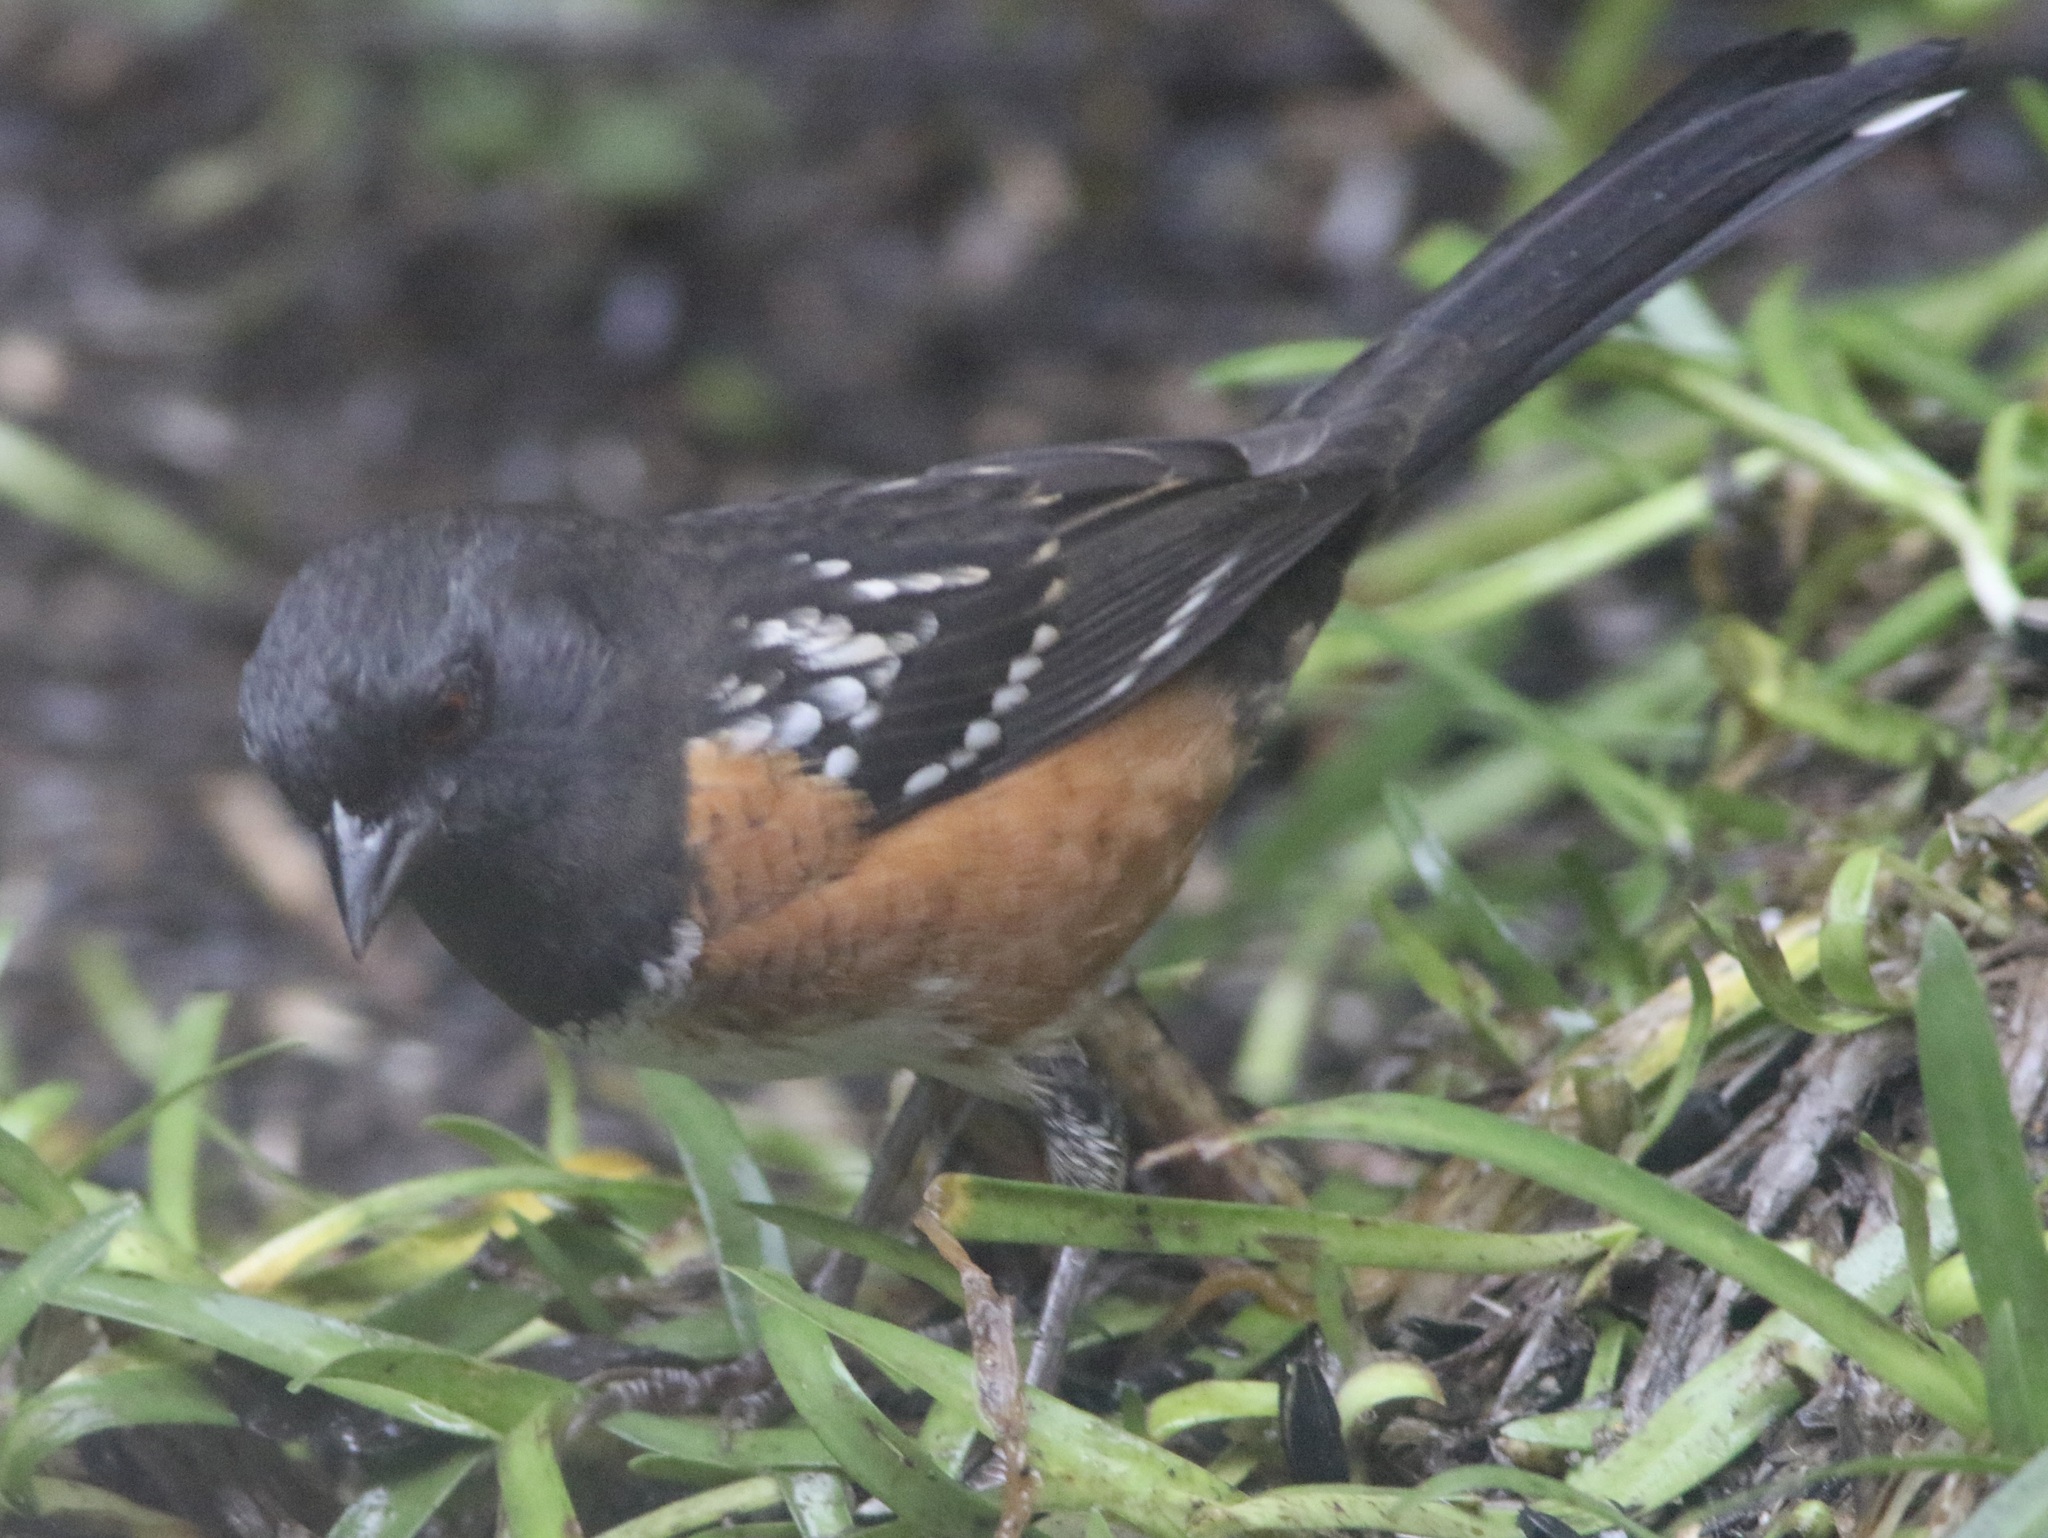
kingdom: Animalia
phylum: Chordata
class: Aves
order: Passeriformes
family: Passerellidae
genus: Pipilo
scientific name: Pipilo maculatus
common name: Spotted towhee
